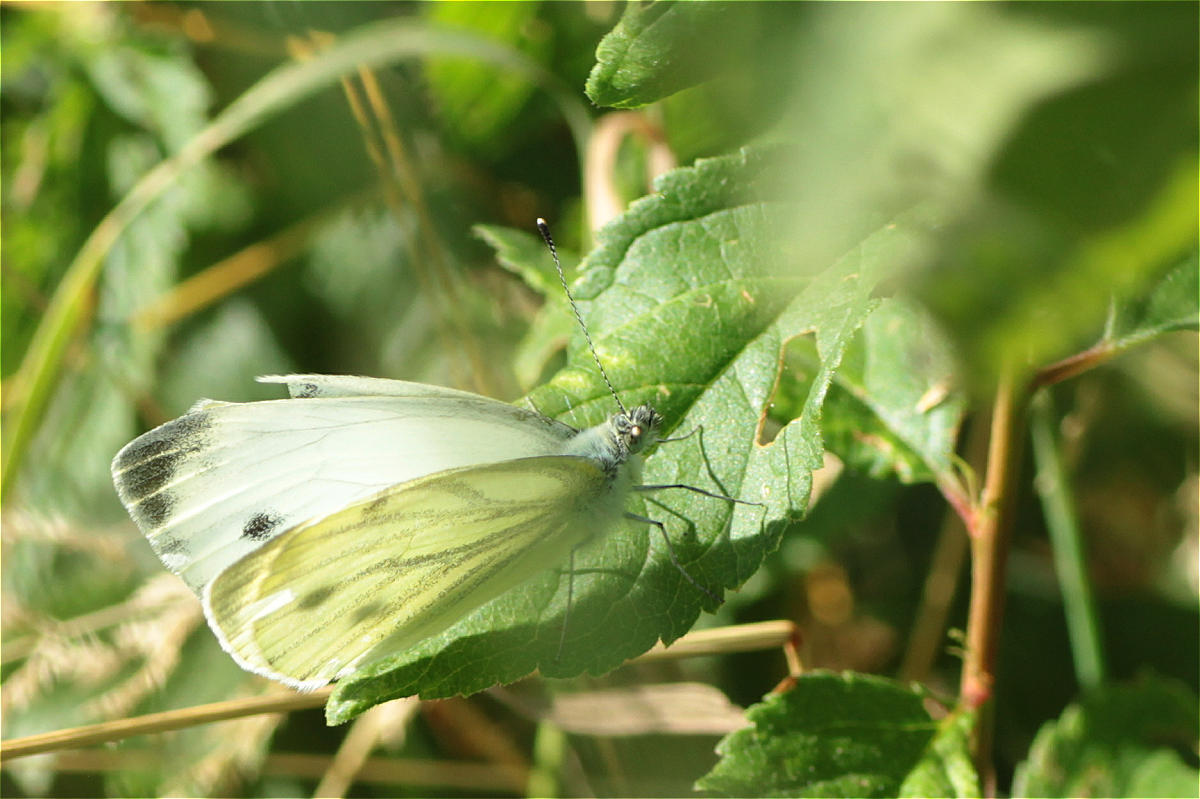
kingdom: Animalia
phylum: Arthropoda
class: Insecta
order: Lepidoptera
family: Pieridae
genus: Pieris
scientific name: Pieris napi
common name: Green-veined white
